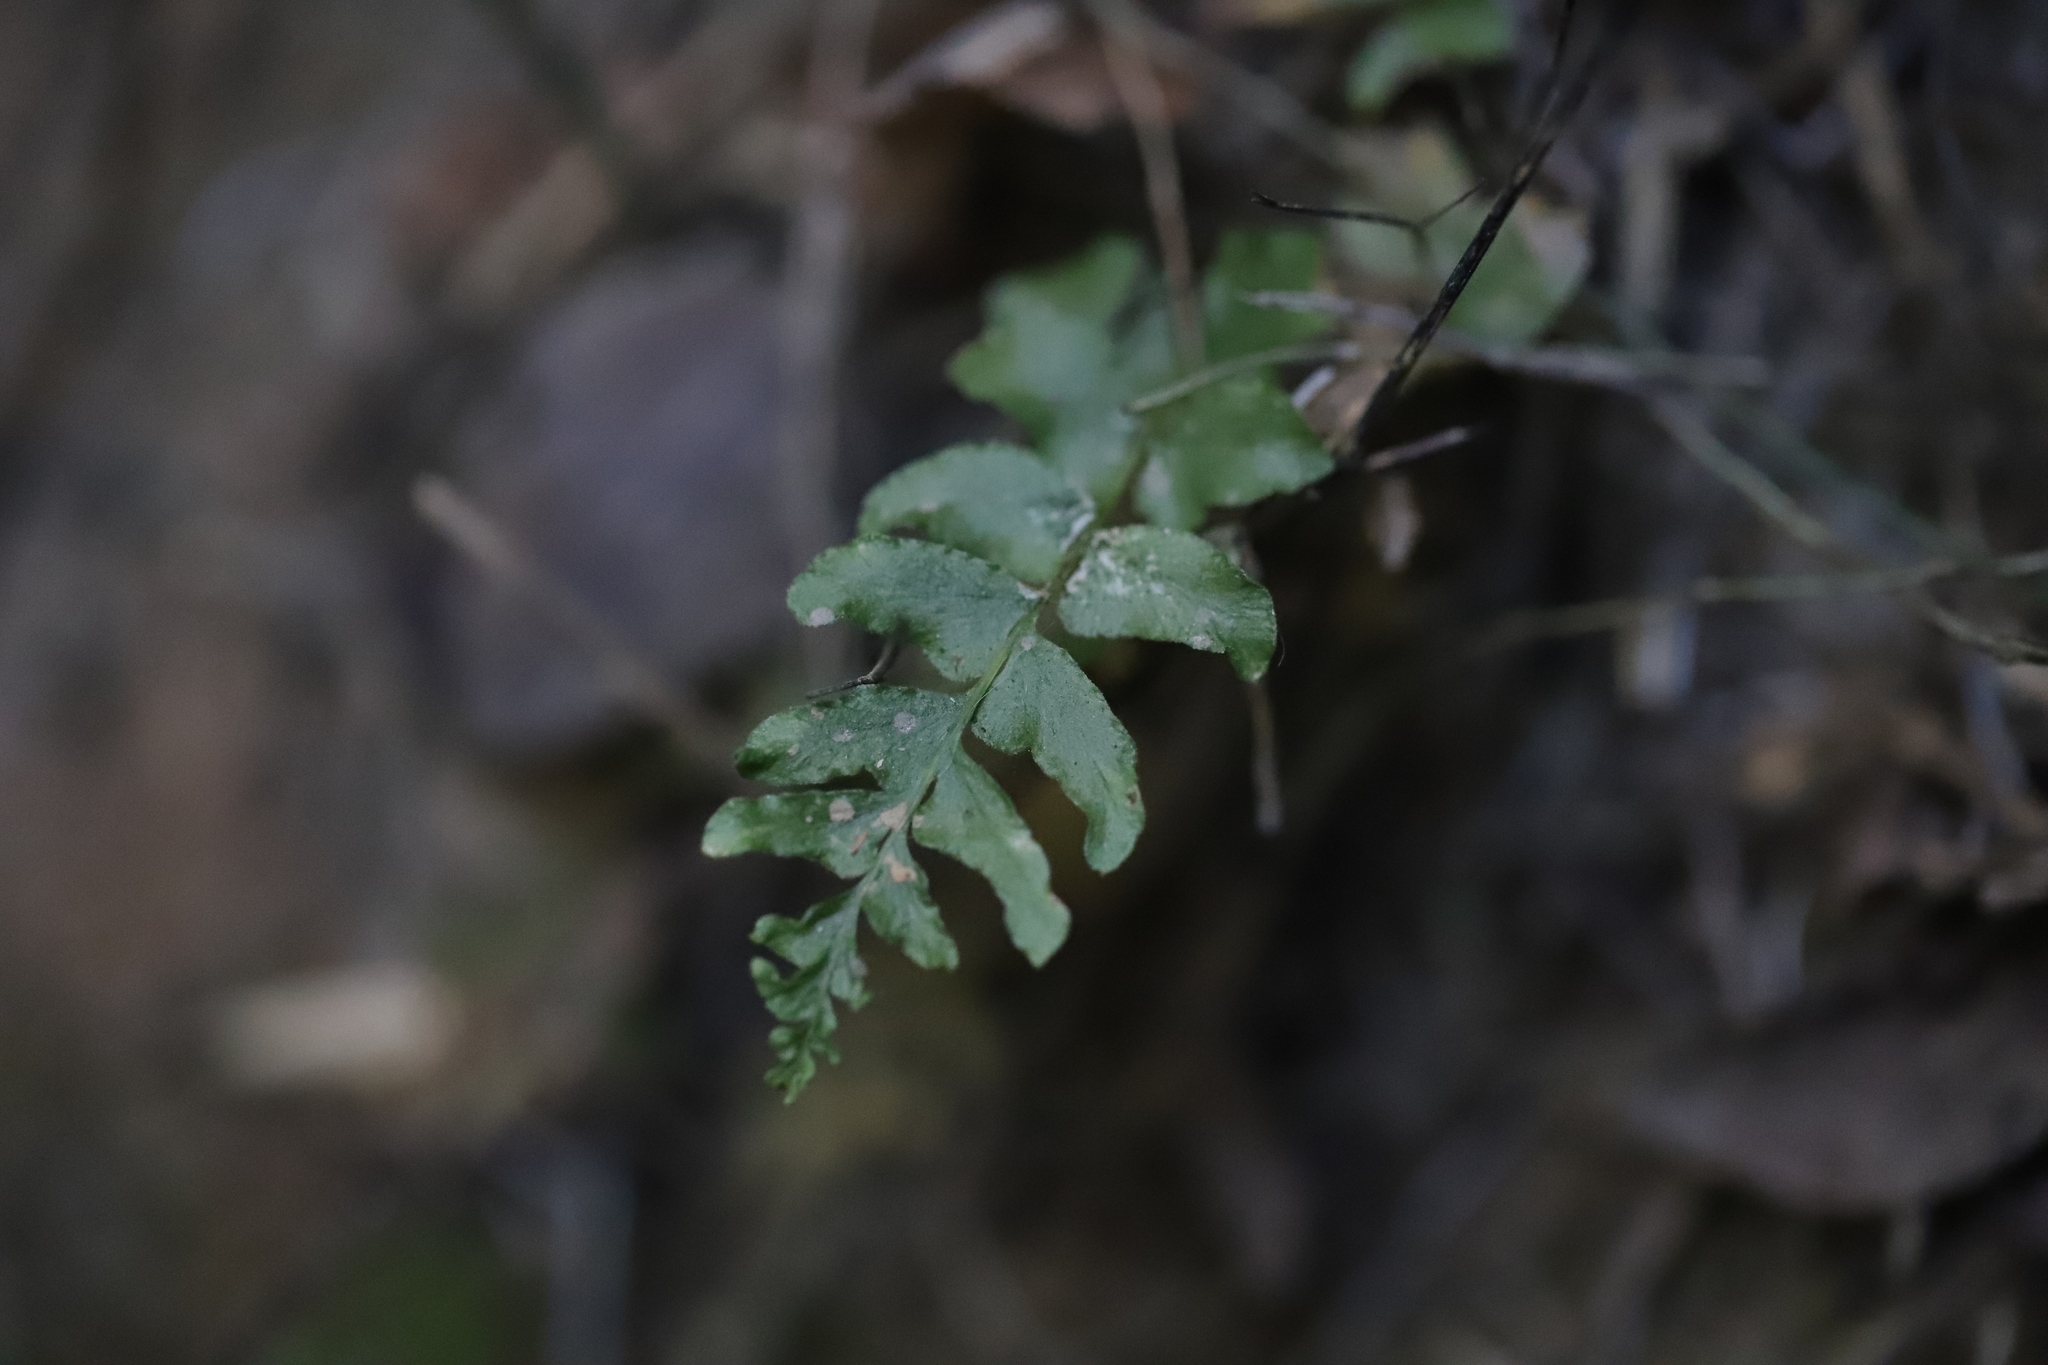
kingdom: Plantae
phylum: Tracheophyta
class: Polypodiopsida
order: Polypodiales
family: Blechnaceae
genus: Blechnum
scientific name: Blechnum hastatum
